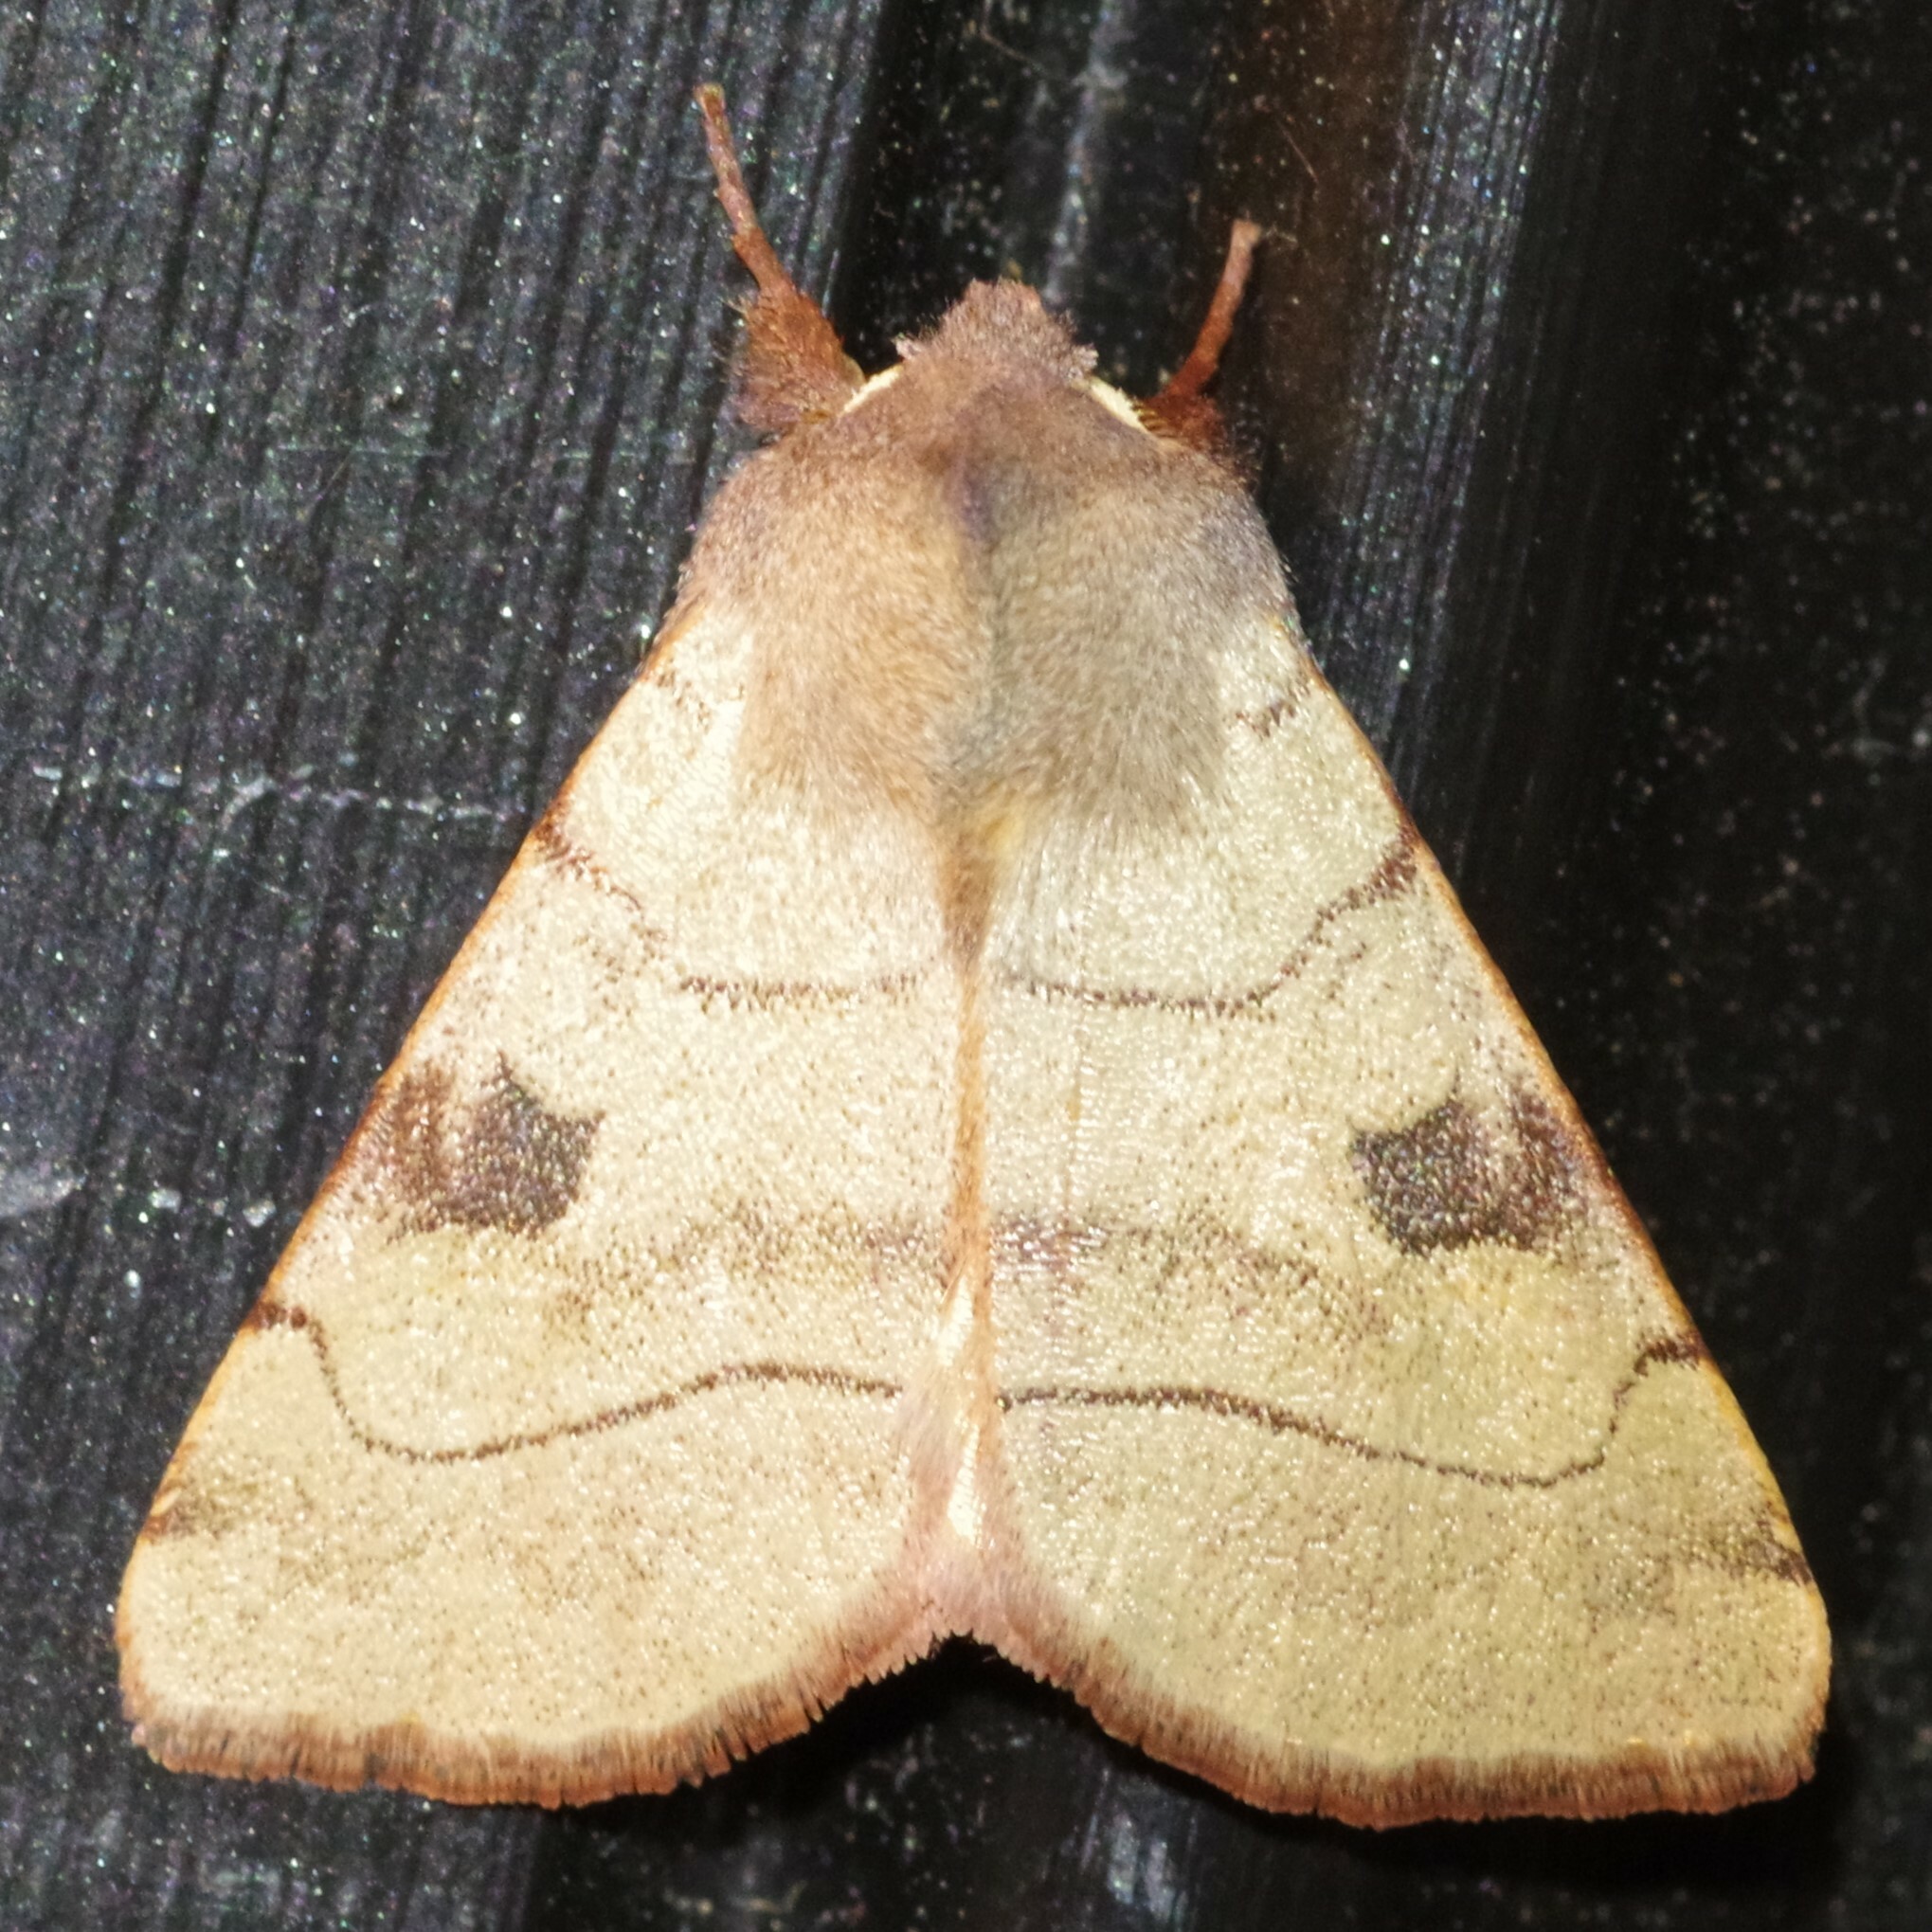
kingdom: Animalia
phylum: Arthropoda
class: Insecta
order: Lepidoptera
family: Noctuidae
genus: Choephora
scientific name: Choephora fungorum
